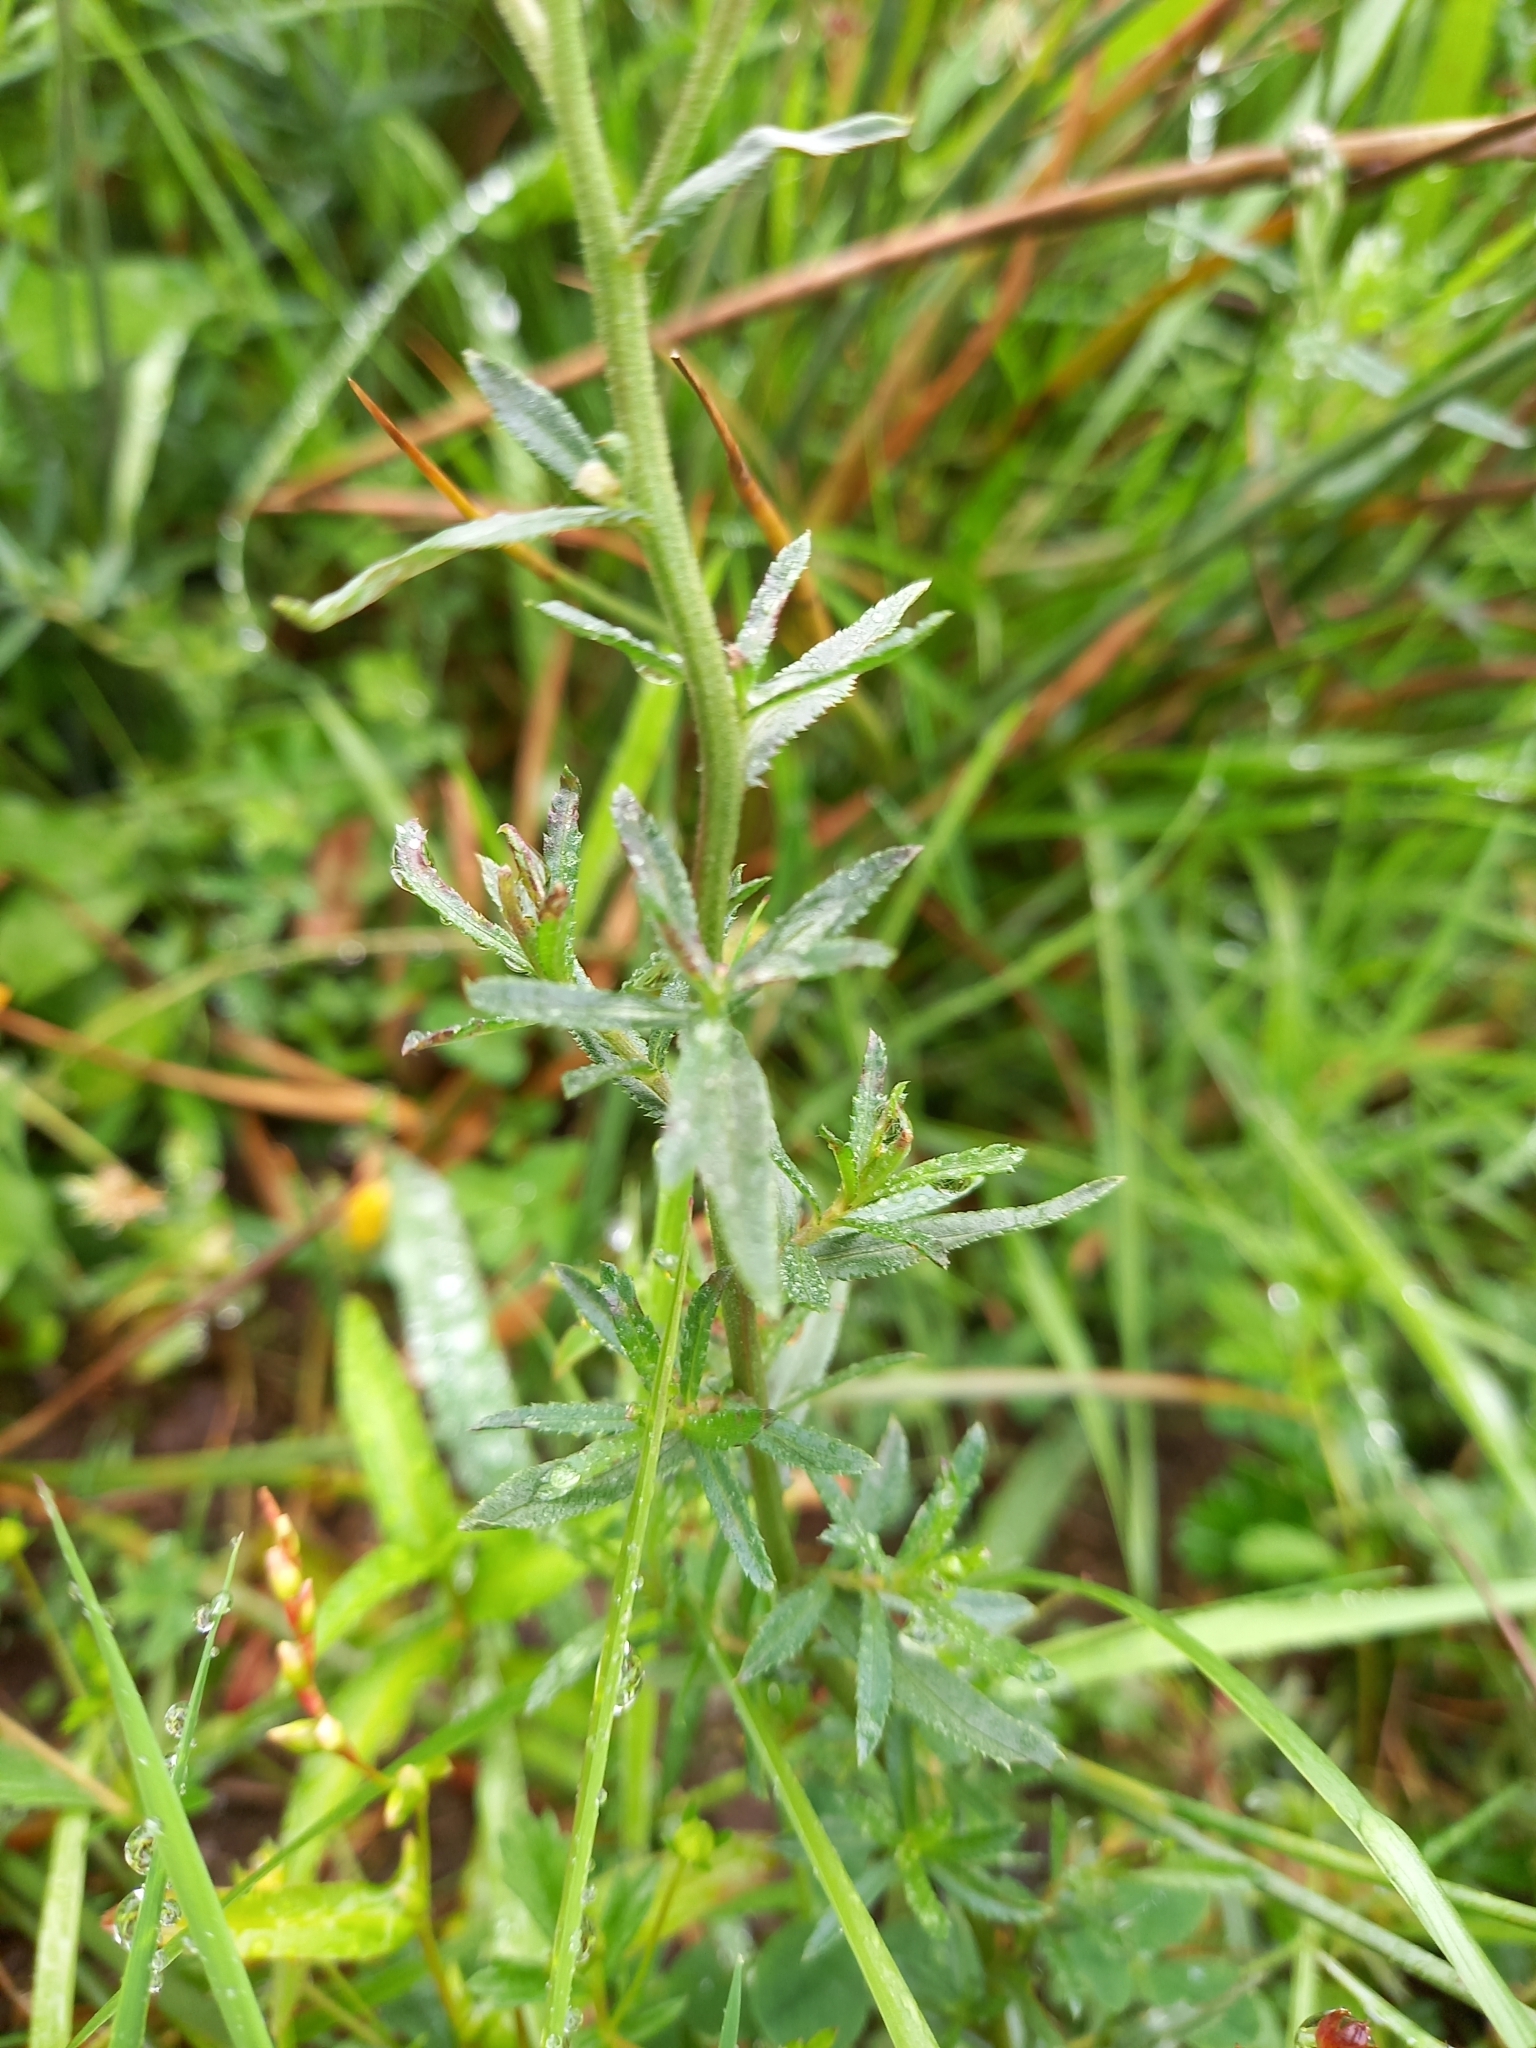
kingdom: Plantae
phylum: Tracheophyta
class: Magnoliopsida
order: Asterales
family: Asteraceae
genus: Achillea
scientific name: Achillea ptarmica
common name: Sneezeweed
